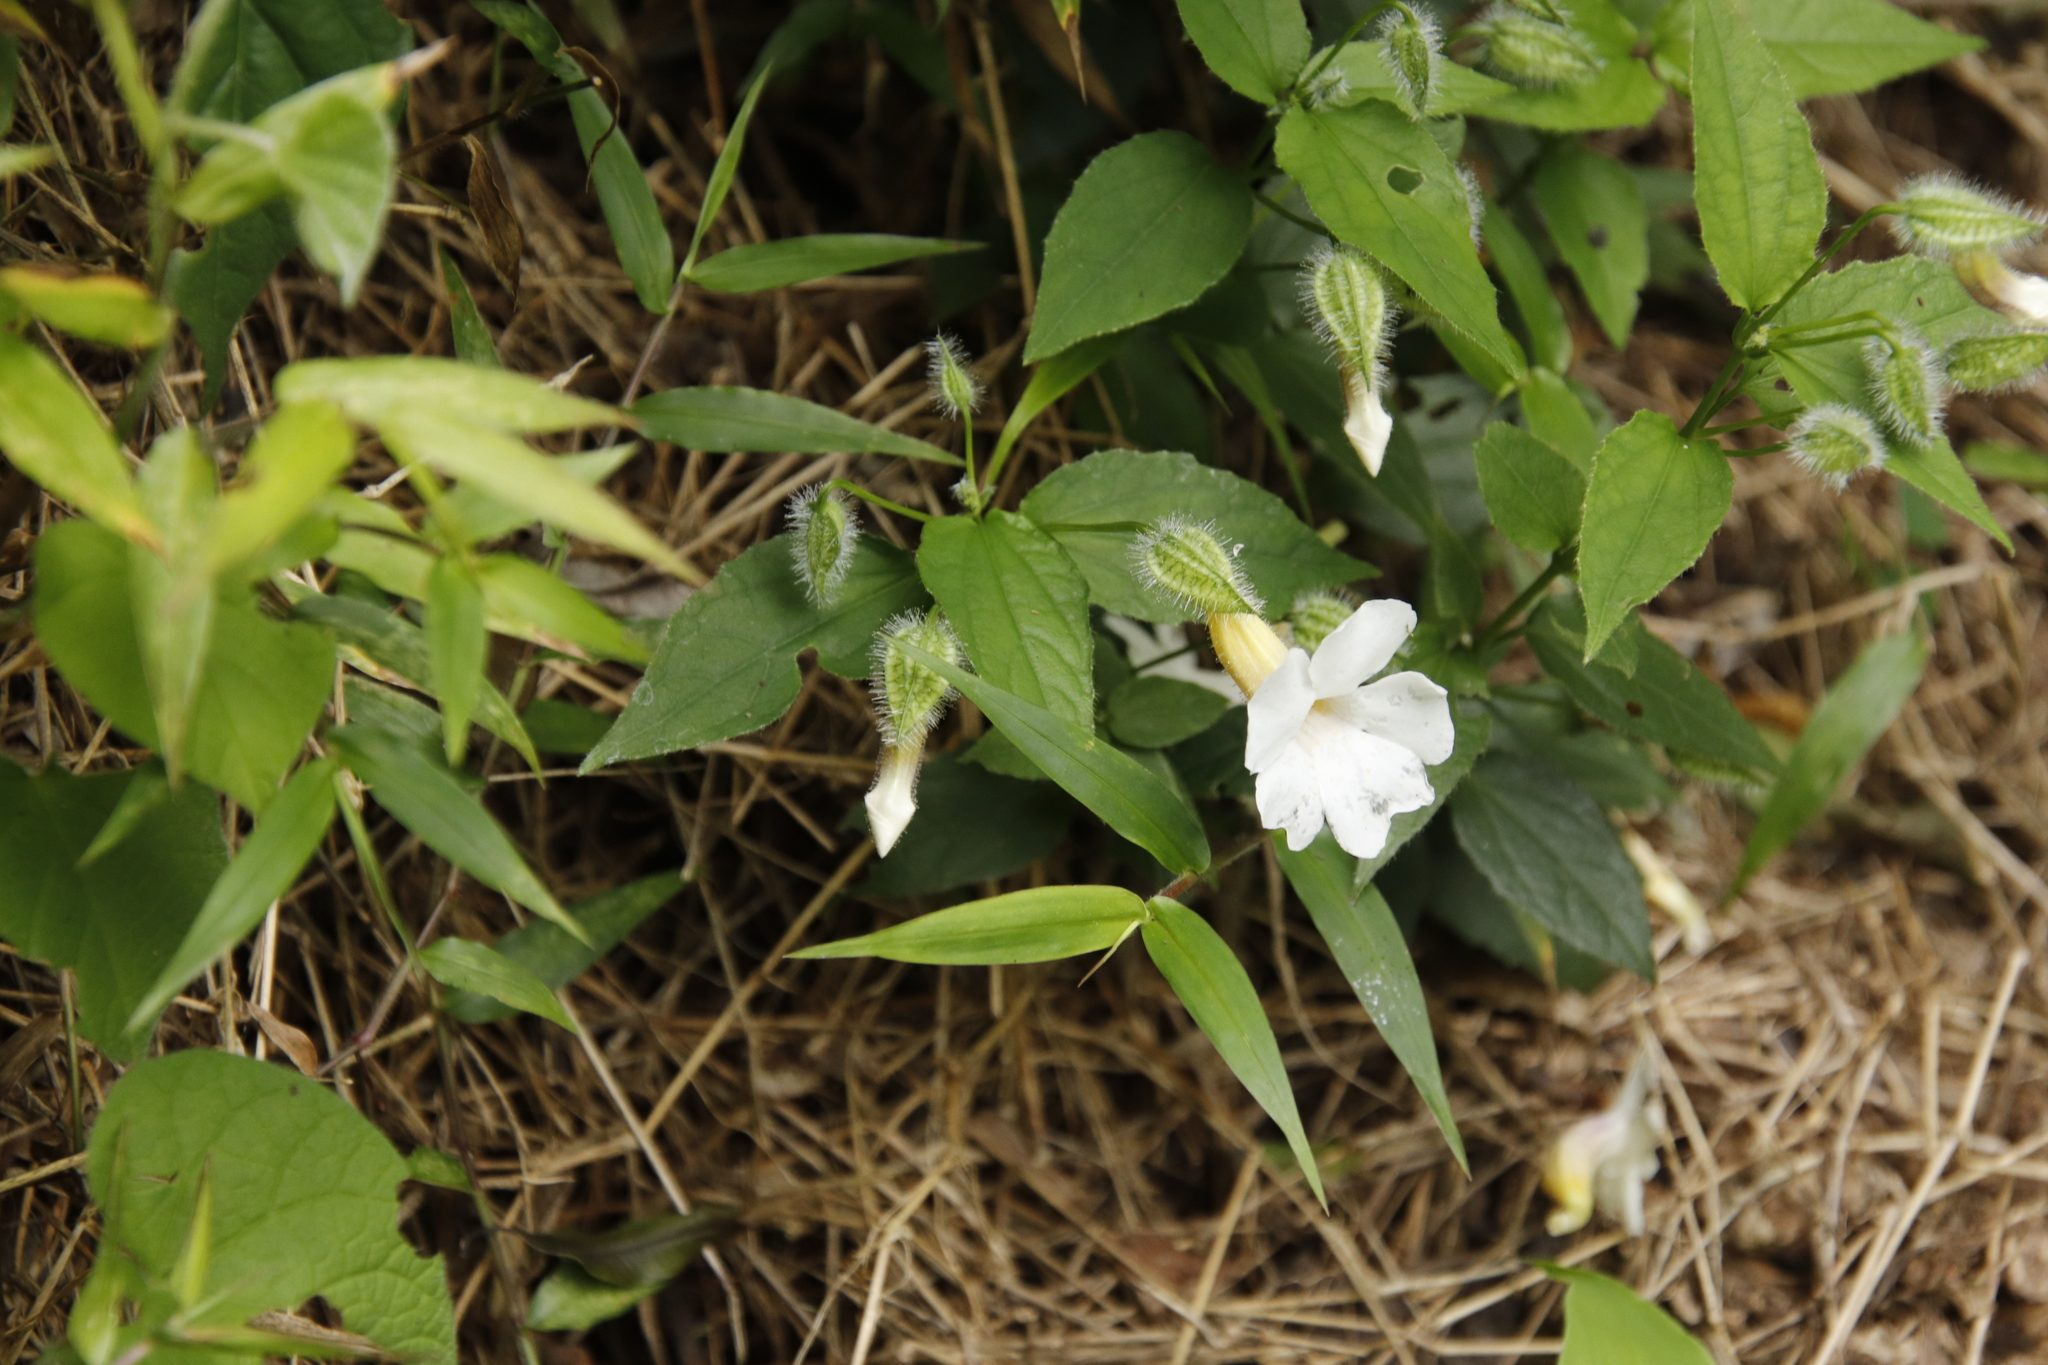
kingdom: Plantae
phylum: Tracheophyta
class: Magnoliopsida
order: Lamiales
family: Acanthaceae
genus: Thunbergia
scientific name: Thunbergia usambarica
